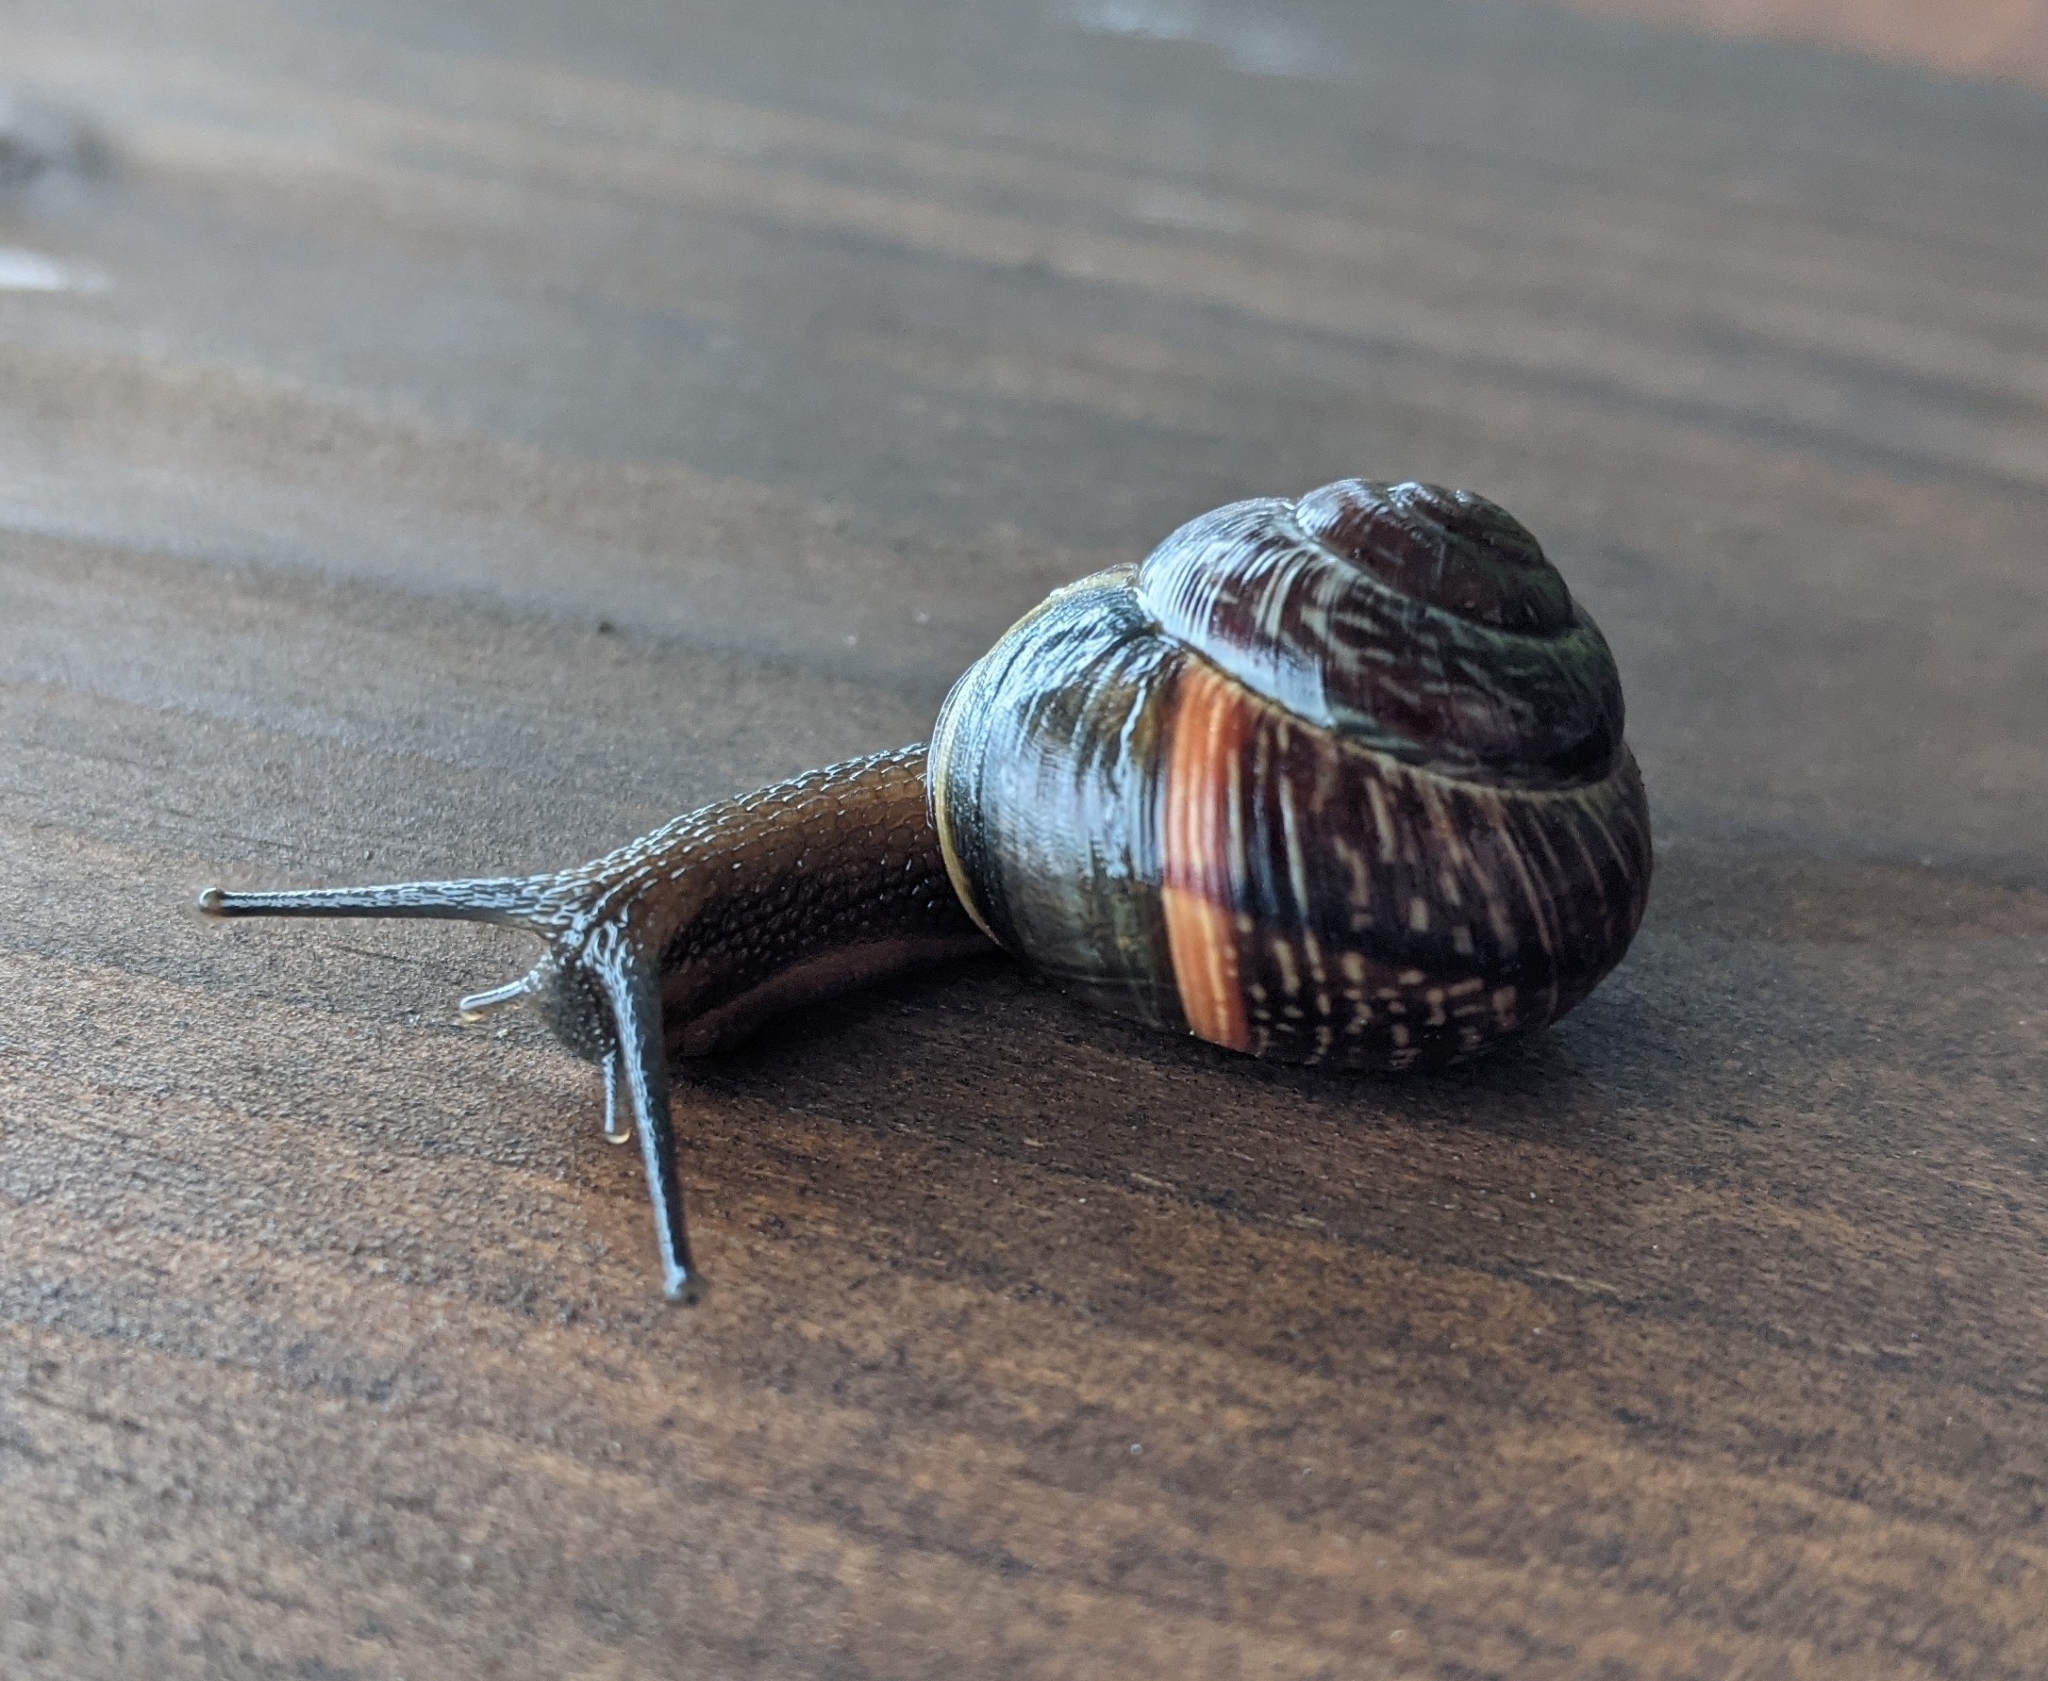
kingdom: Animalia
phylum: Mollusca
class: Gastropoda
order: Stylommatophora
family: Helicidae
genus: Arianta
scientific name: Arianta arbustorum
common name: Copse snail
